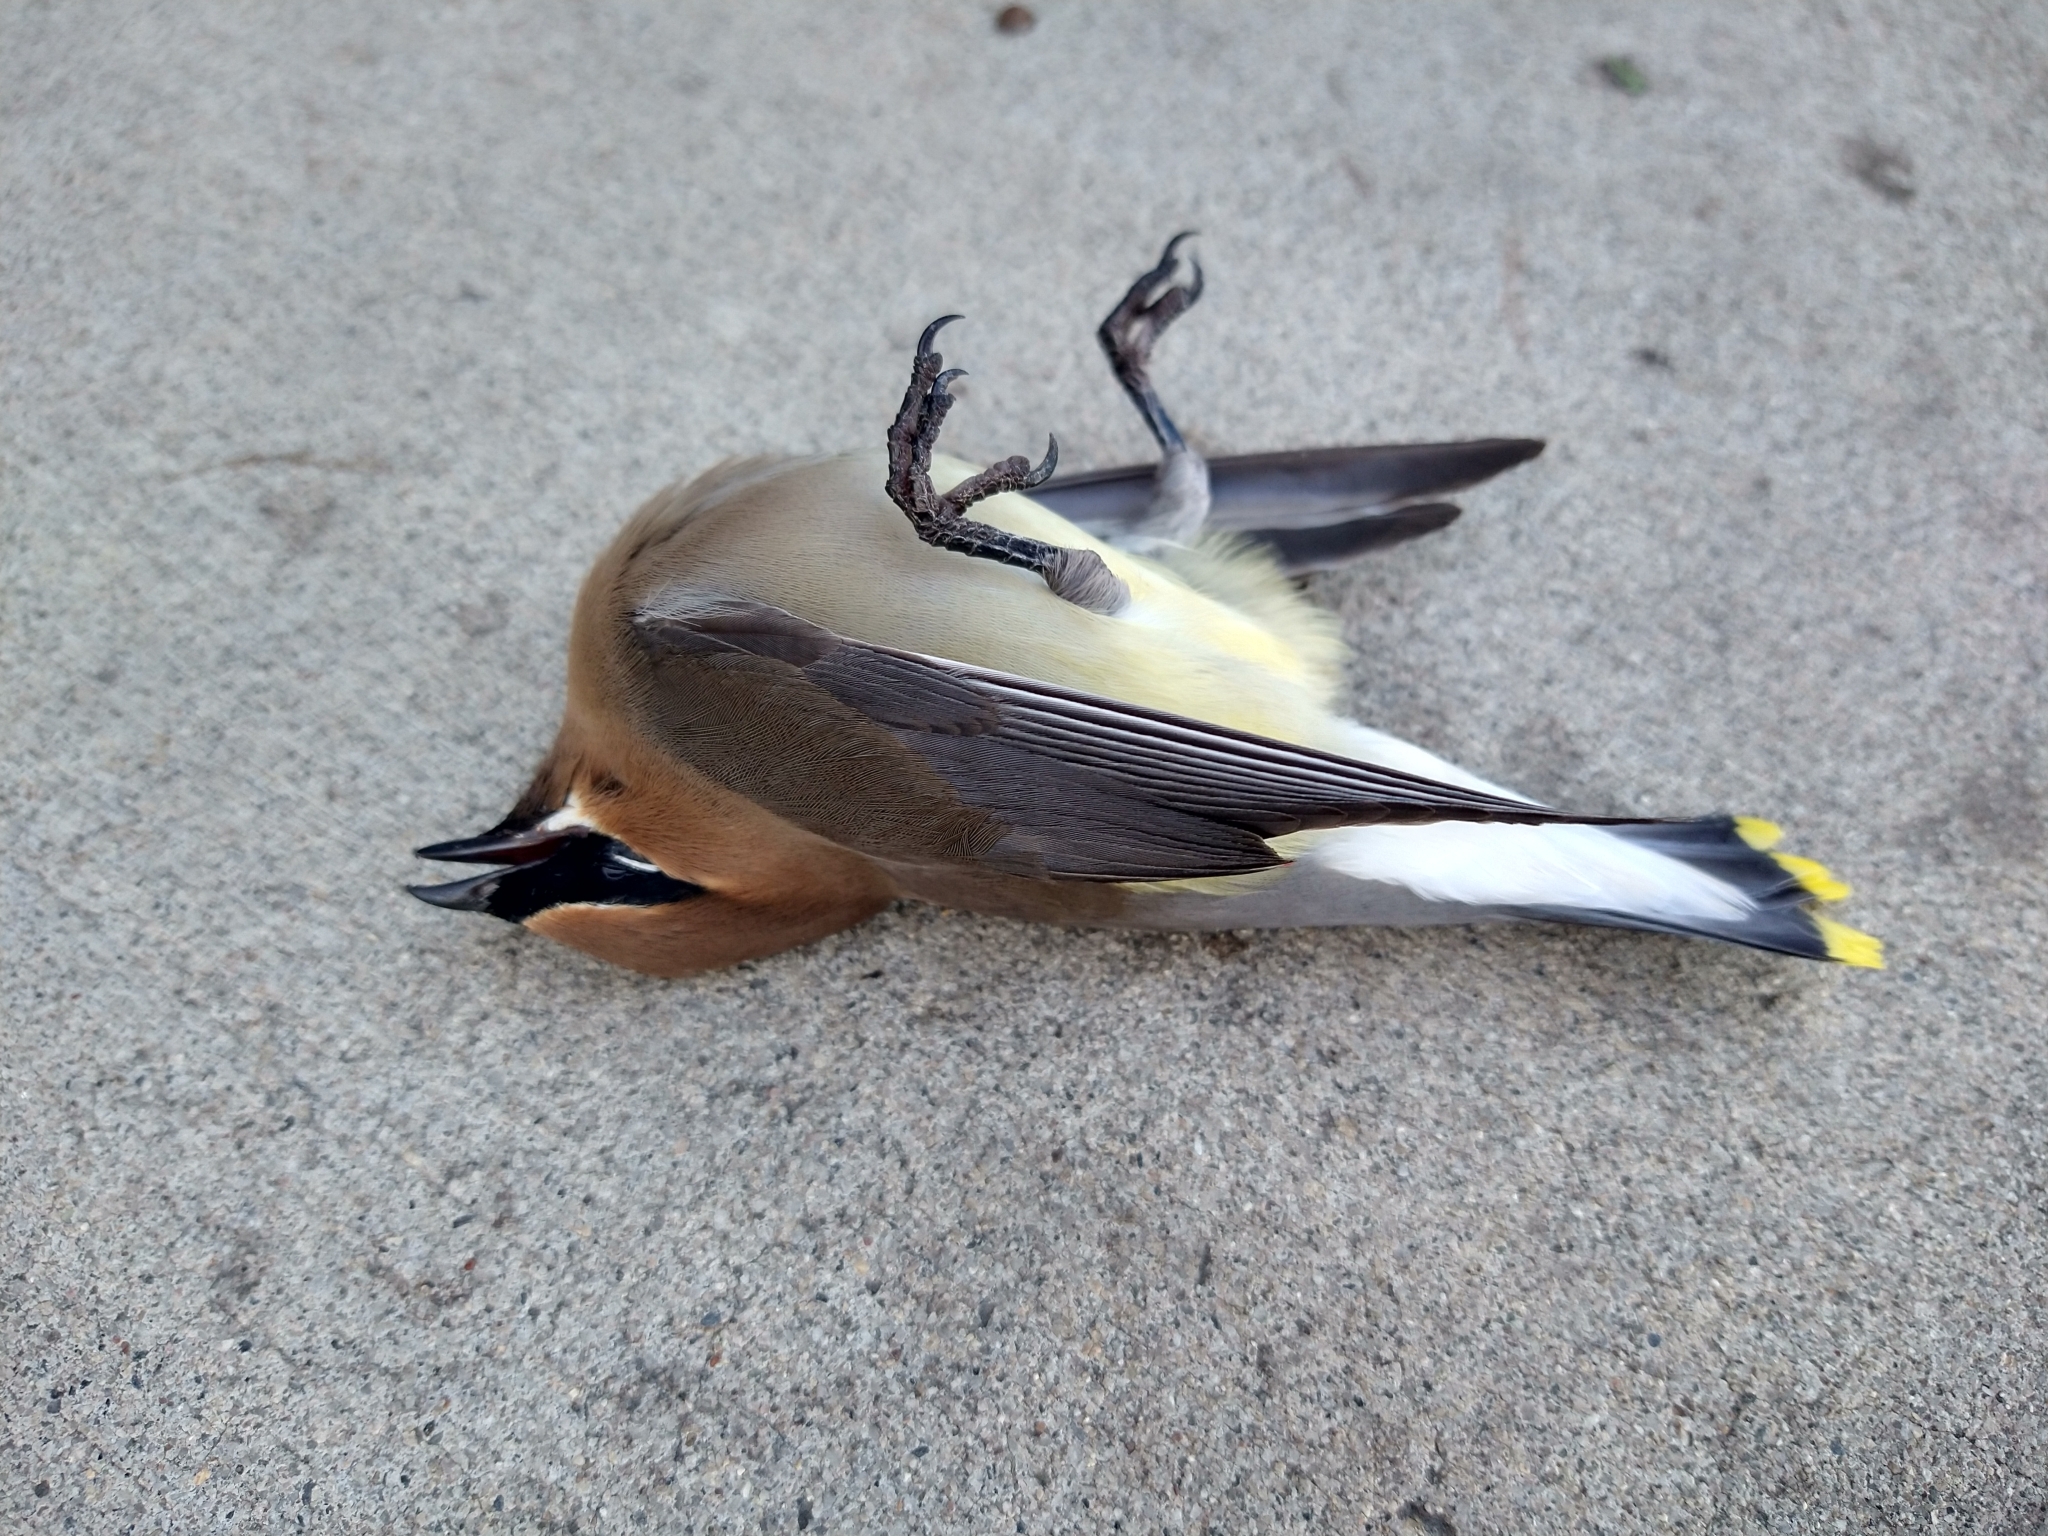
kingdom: Animalia
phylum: Chordata
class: Aves
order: Passeriformes
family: Bombycillidae
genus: Bombycilla
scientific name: Bombycilla cedrorum
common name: Cedar waxwing
